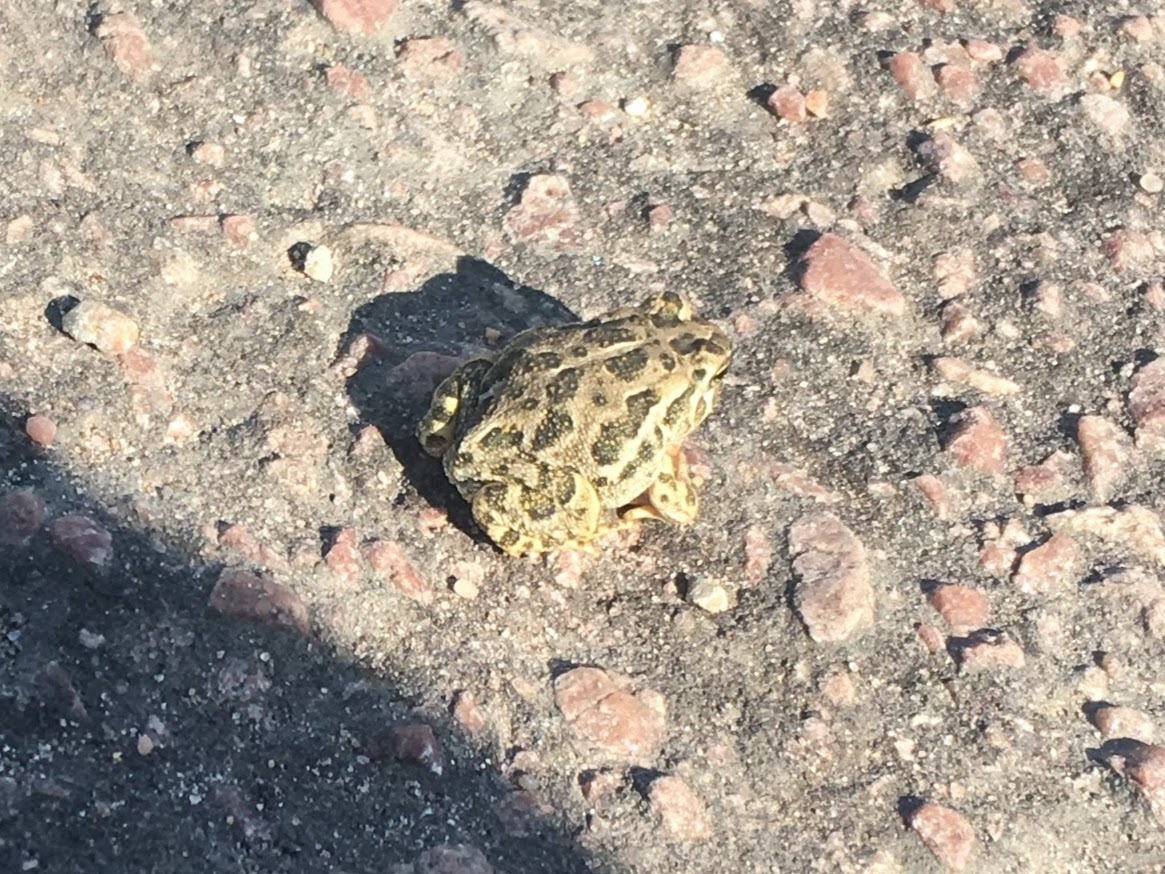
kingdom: Animalia
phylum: Chordata
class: Amphibia
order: Anura
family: Bufonidae
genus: Anaxyrus
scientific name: Anaxyrus cognatus
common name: Great plains toad
